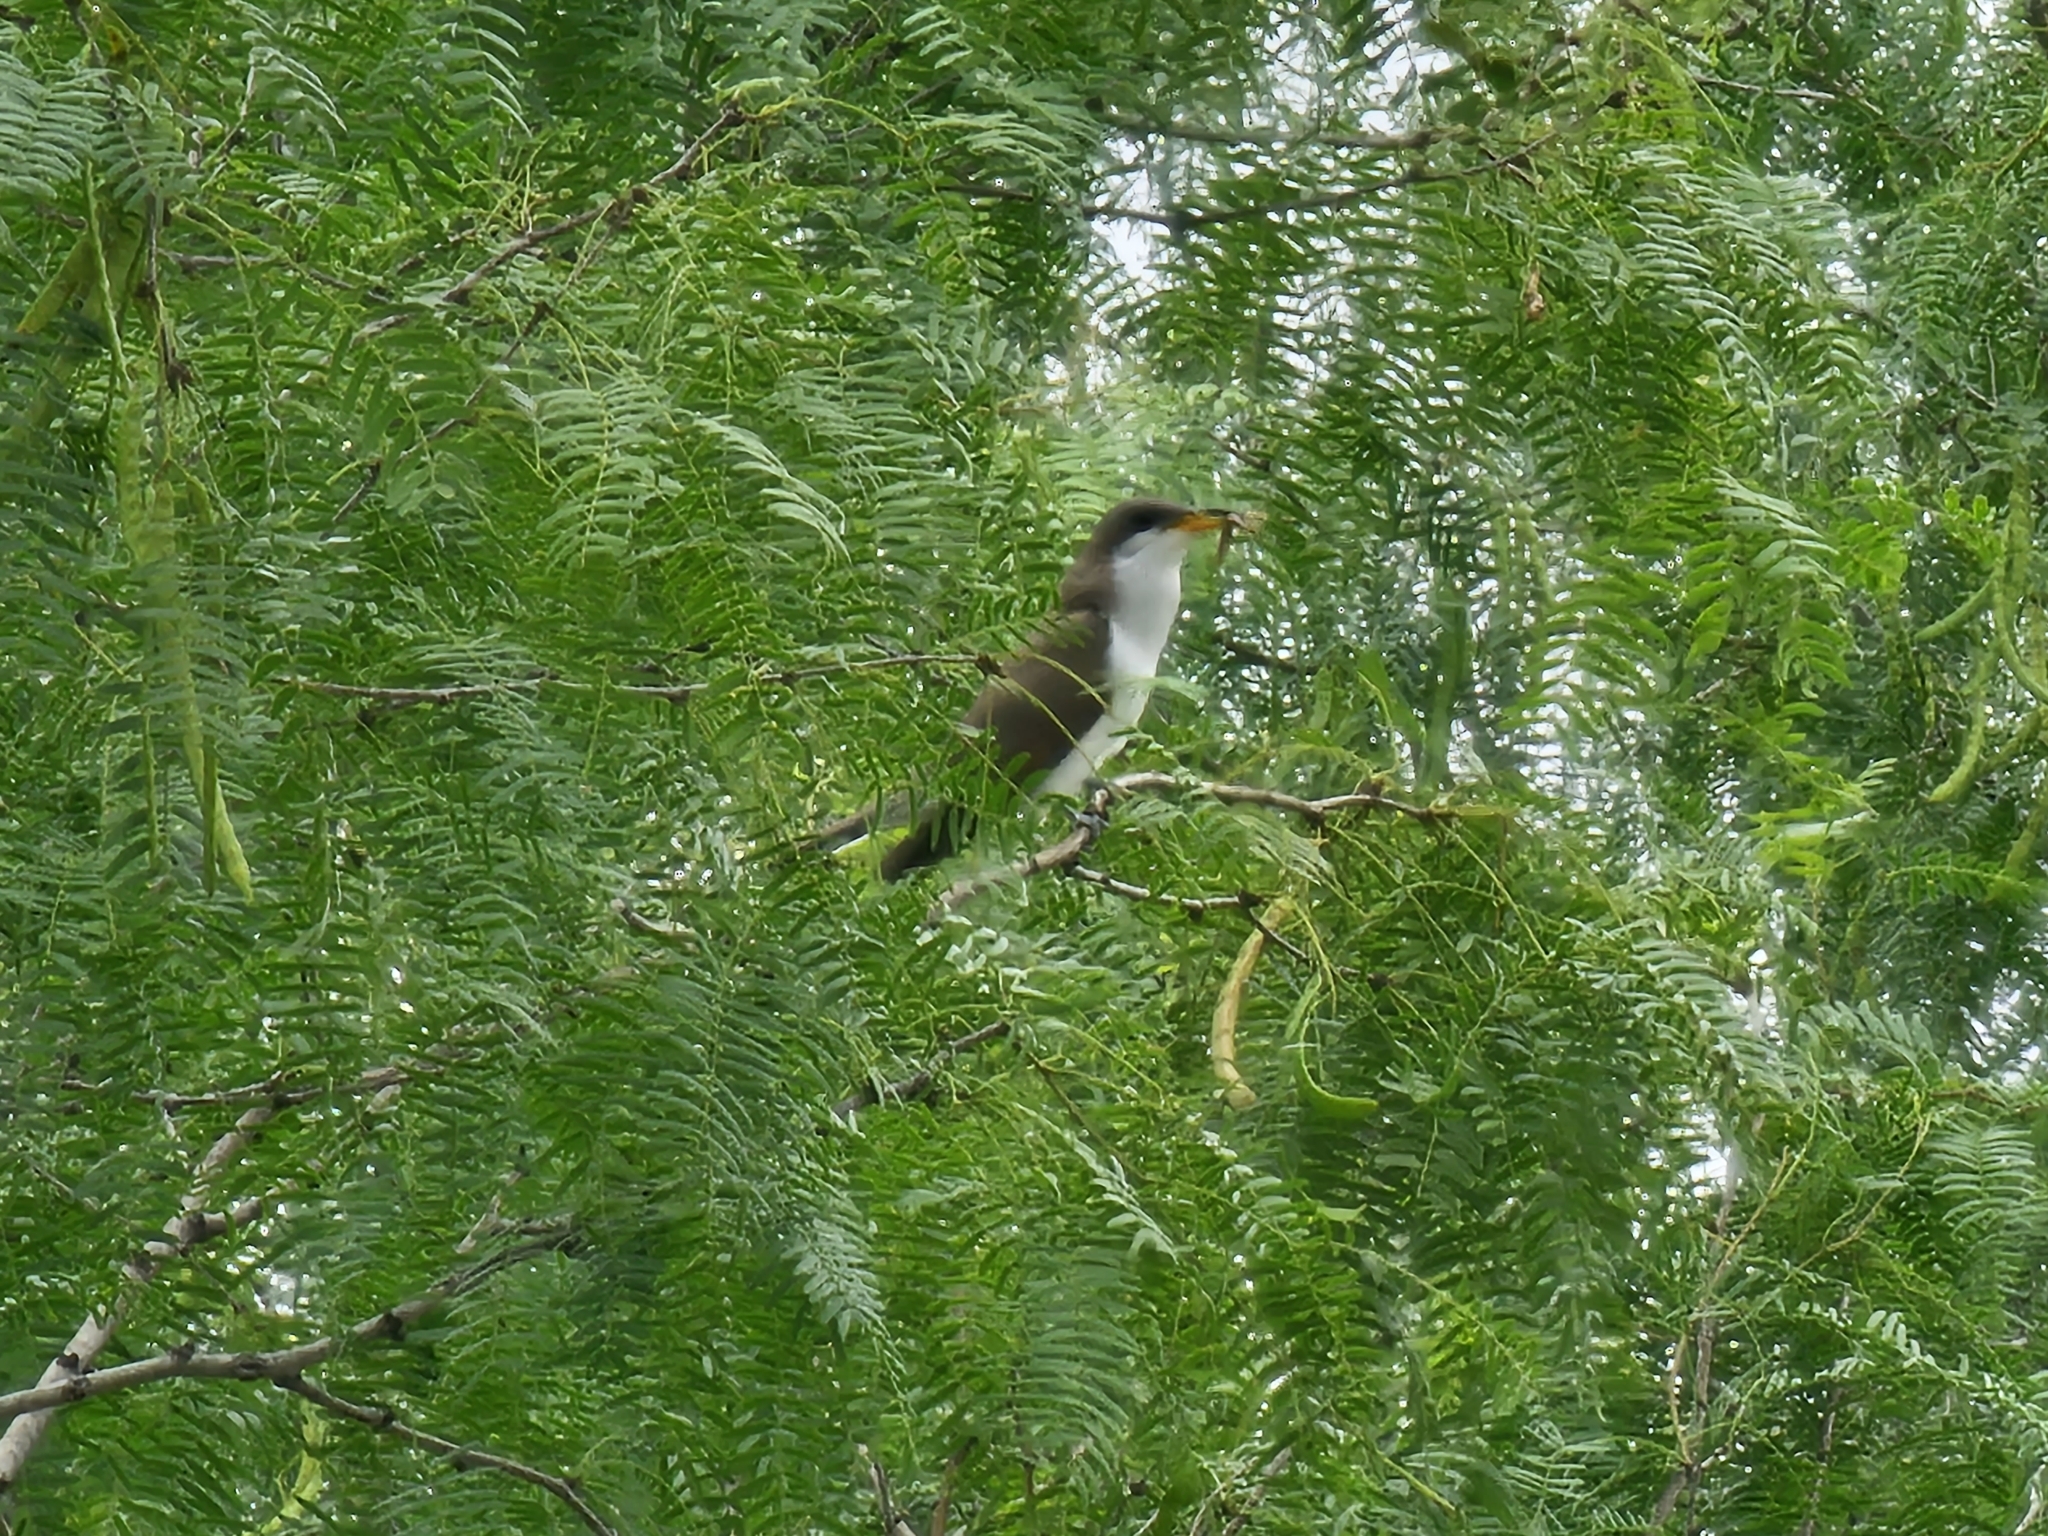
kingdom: Animalia
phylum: Chordata
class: Aves
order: Cuculiformes
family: Cuculidae
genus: Coccyzus
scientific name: Coccyzus americanus
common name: Yellow-billed cuckoo
